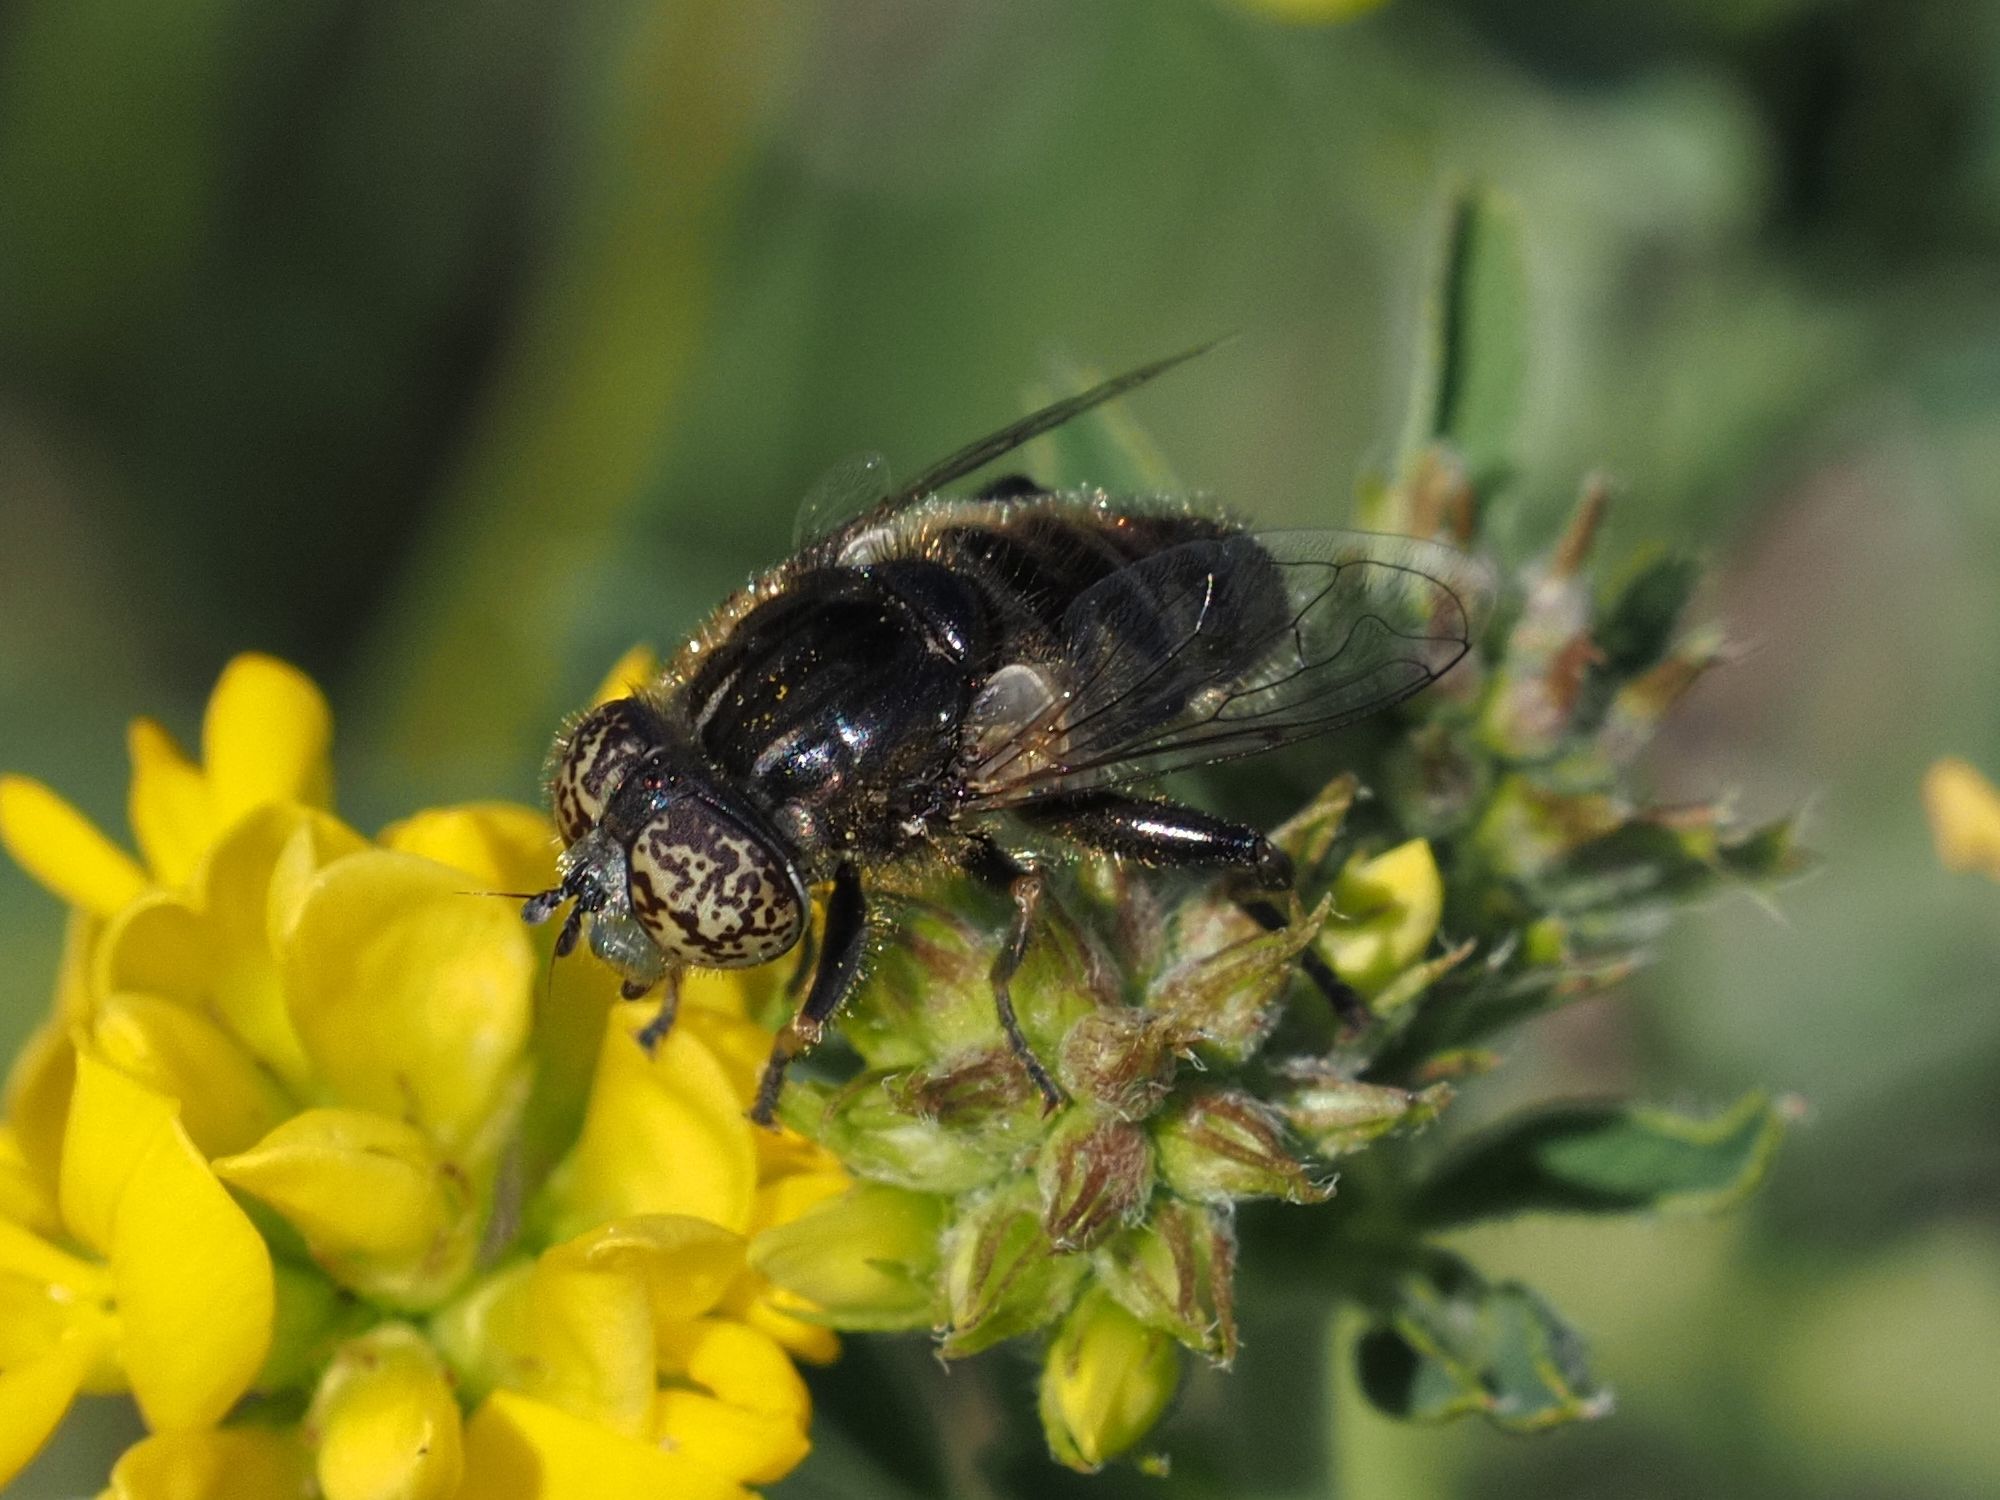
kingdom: Animalia
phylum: Arthropoda
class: Insecta
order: Diptera
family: Syrphidae
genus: Eristalinus
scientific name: Eristalinus sepulchralis
